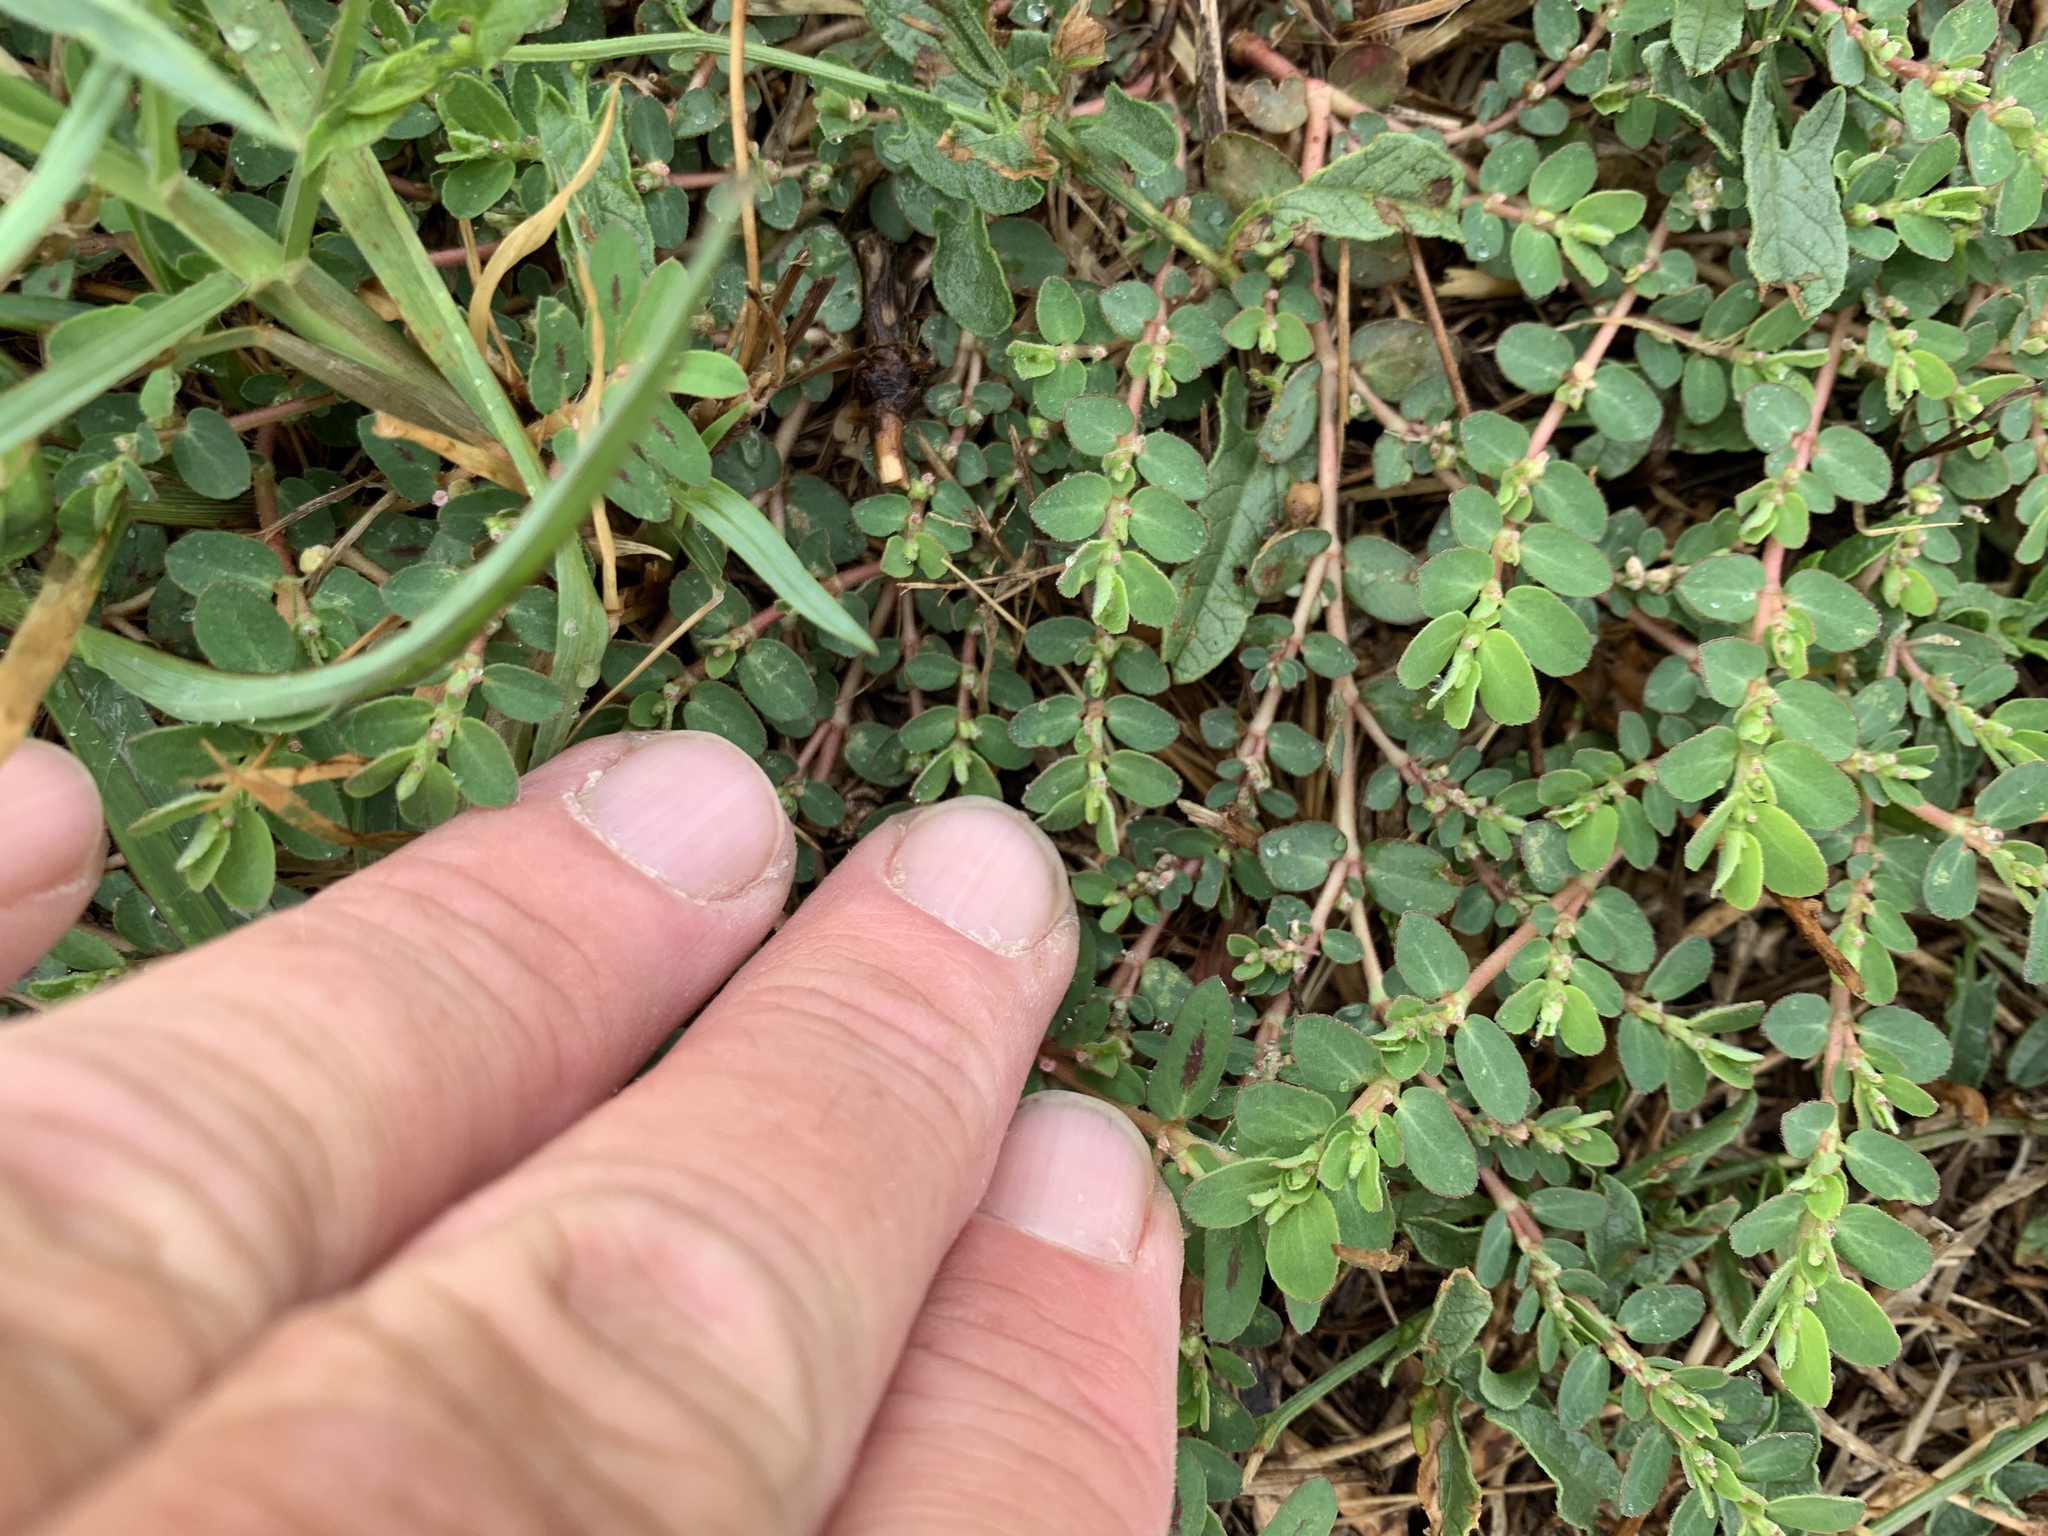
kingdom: Plantae
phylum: Tracheophyta
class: Magnoliopsida
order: Malpighiales
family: Euphorbiaceae
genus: Euphorbia
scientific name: Euphorbia prostrata
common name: Prostrate sandmat
